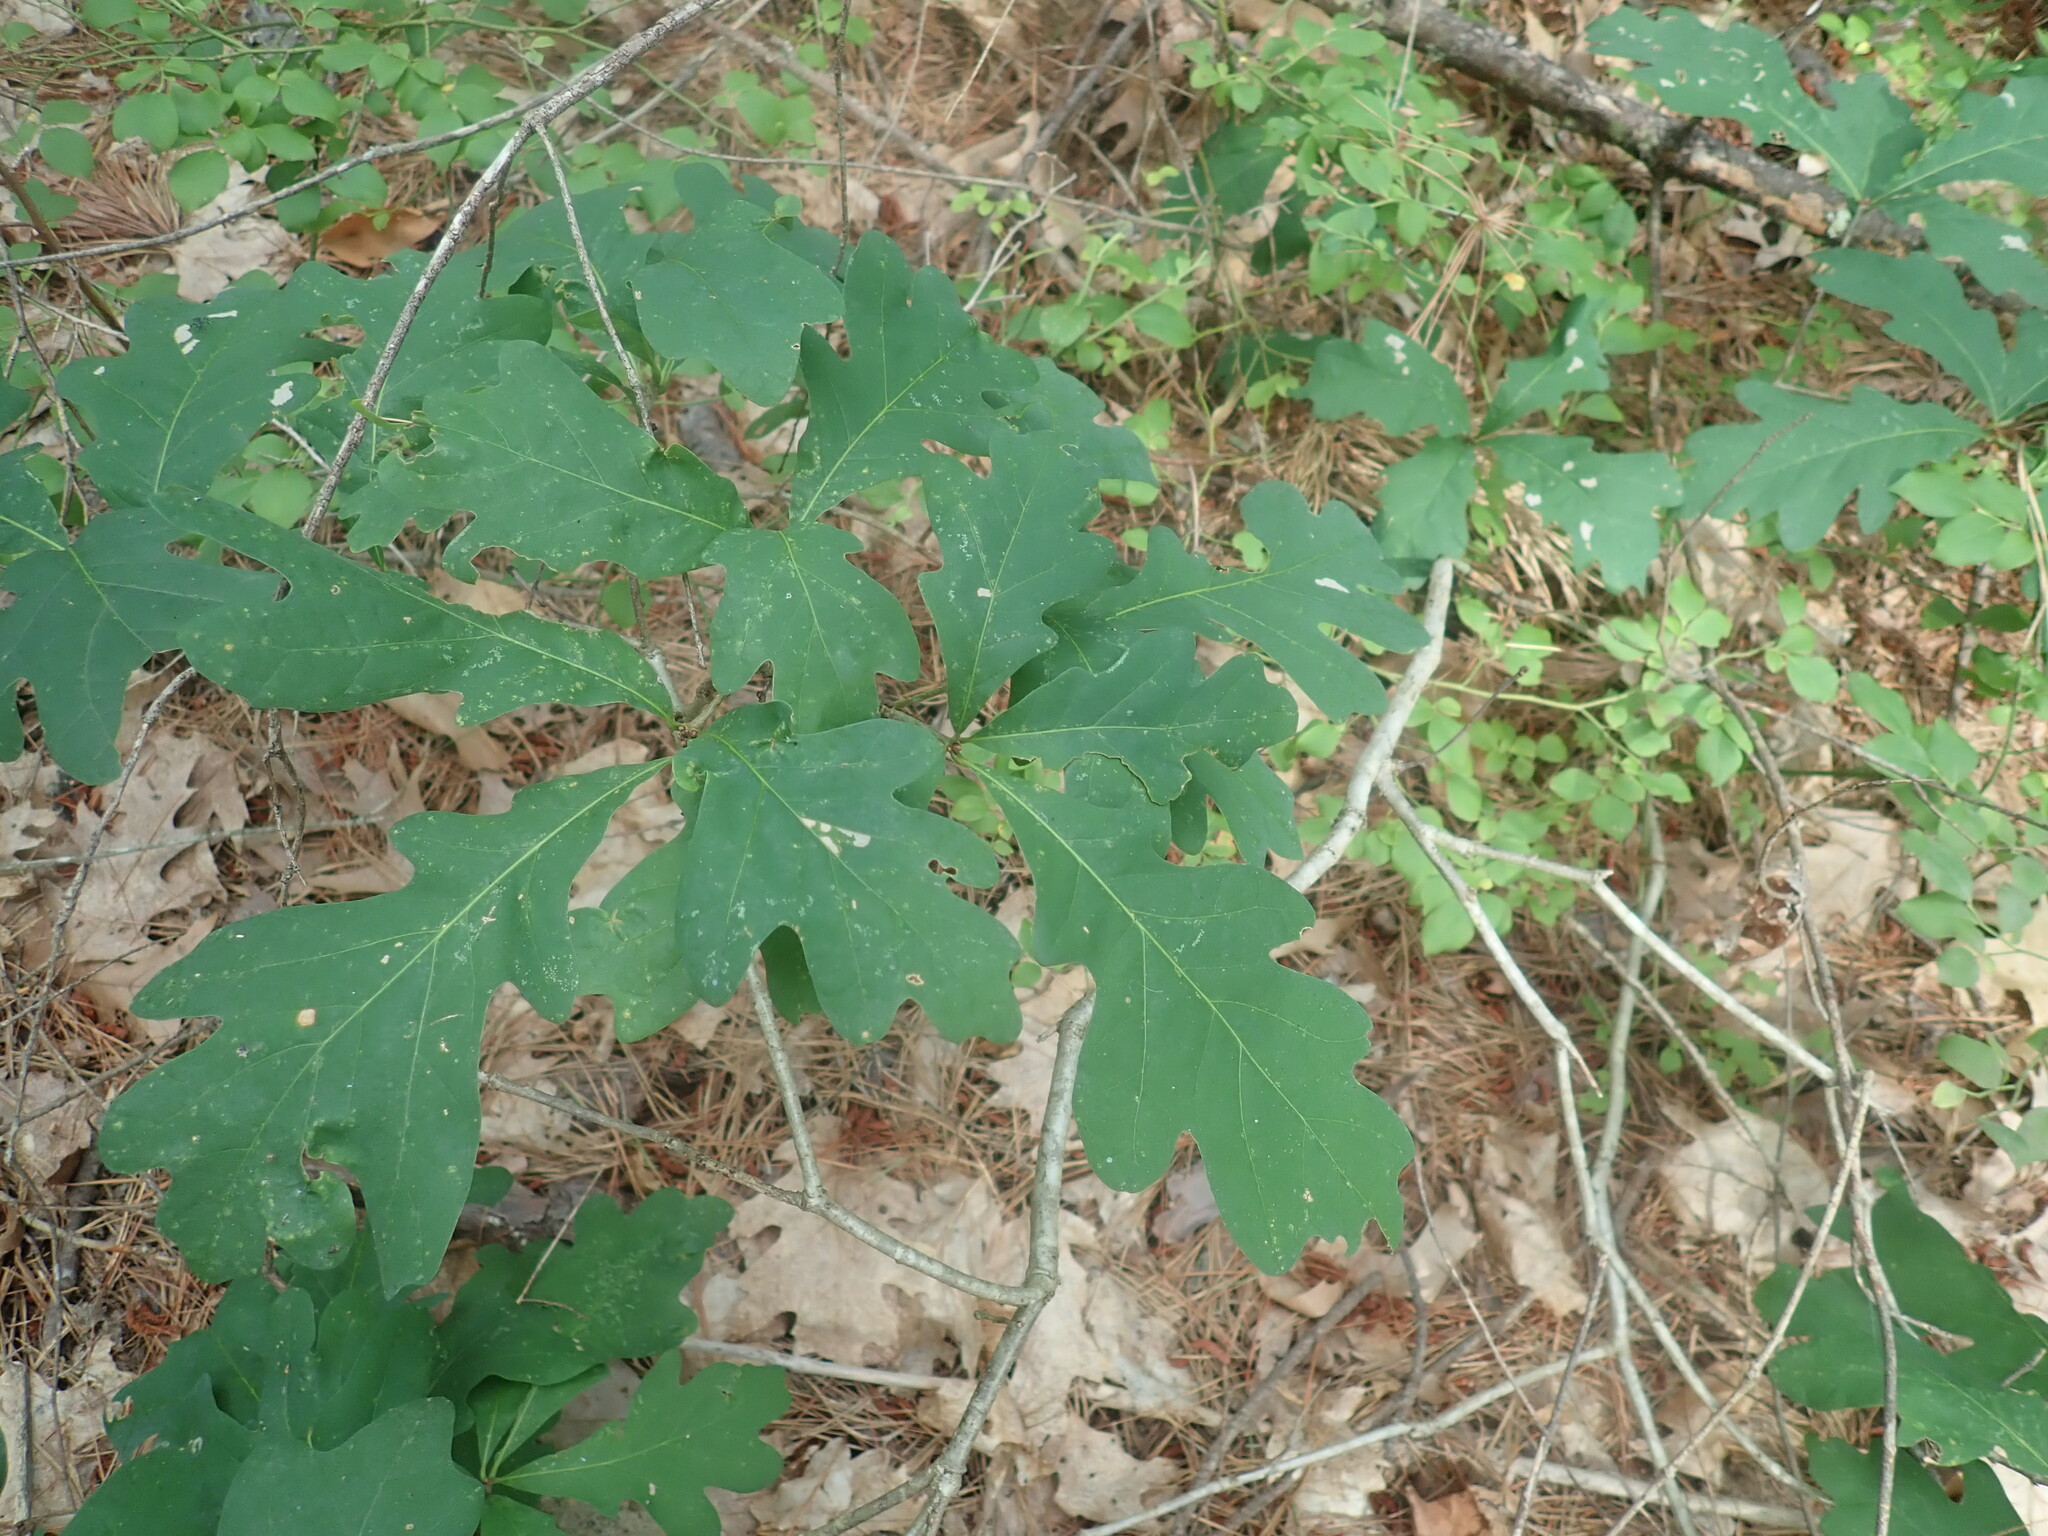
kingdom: Plantae
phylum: Tracheophyta
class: Magnoliopsida
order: Fagales
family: Fagaceae
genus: Quercus
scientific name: Quercus alba
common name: White oak
